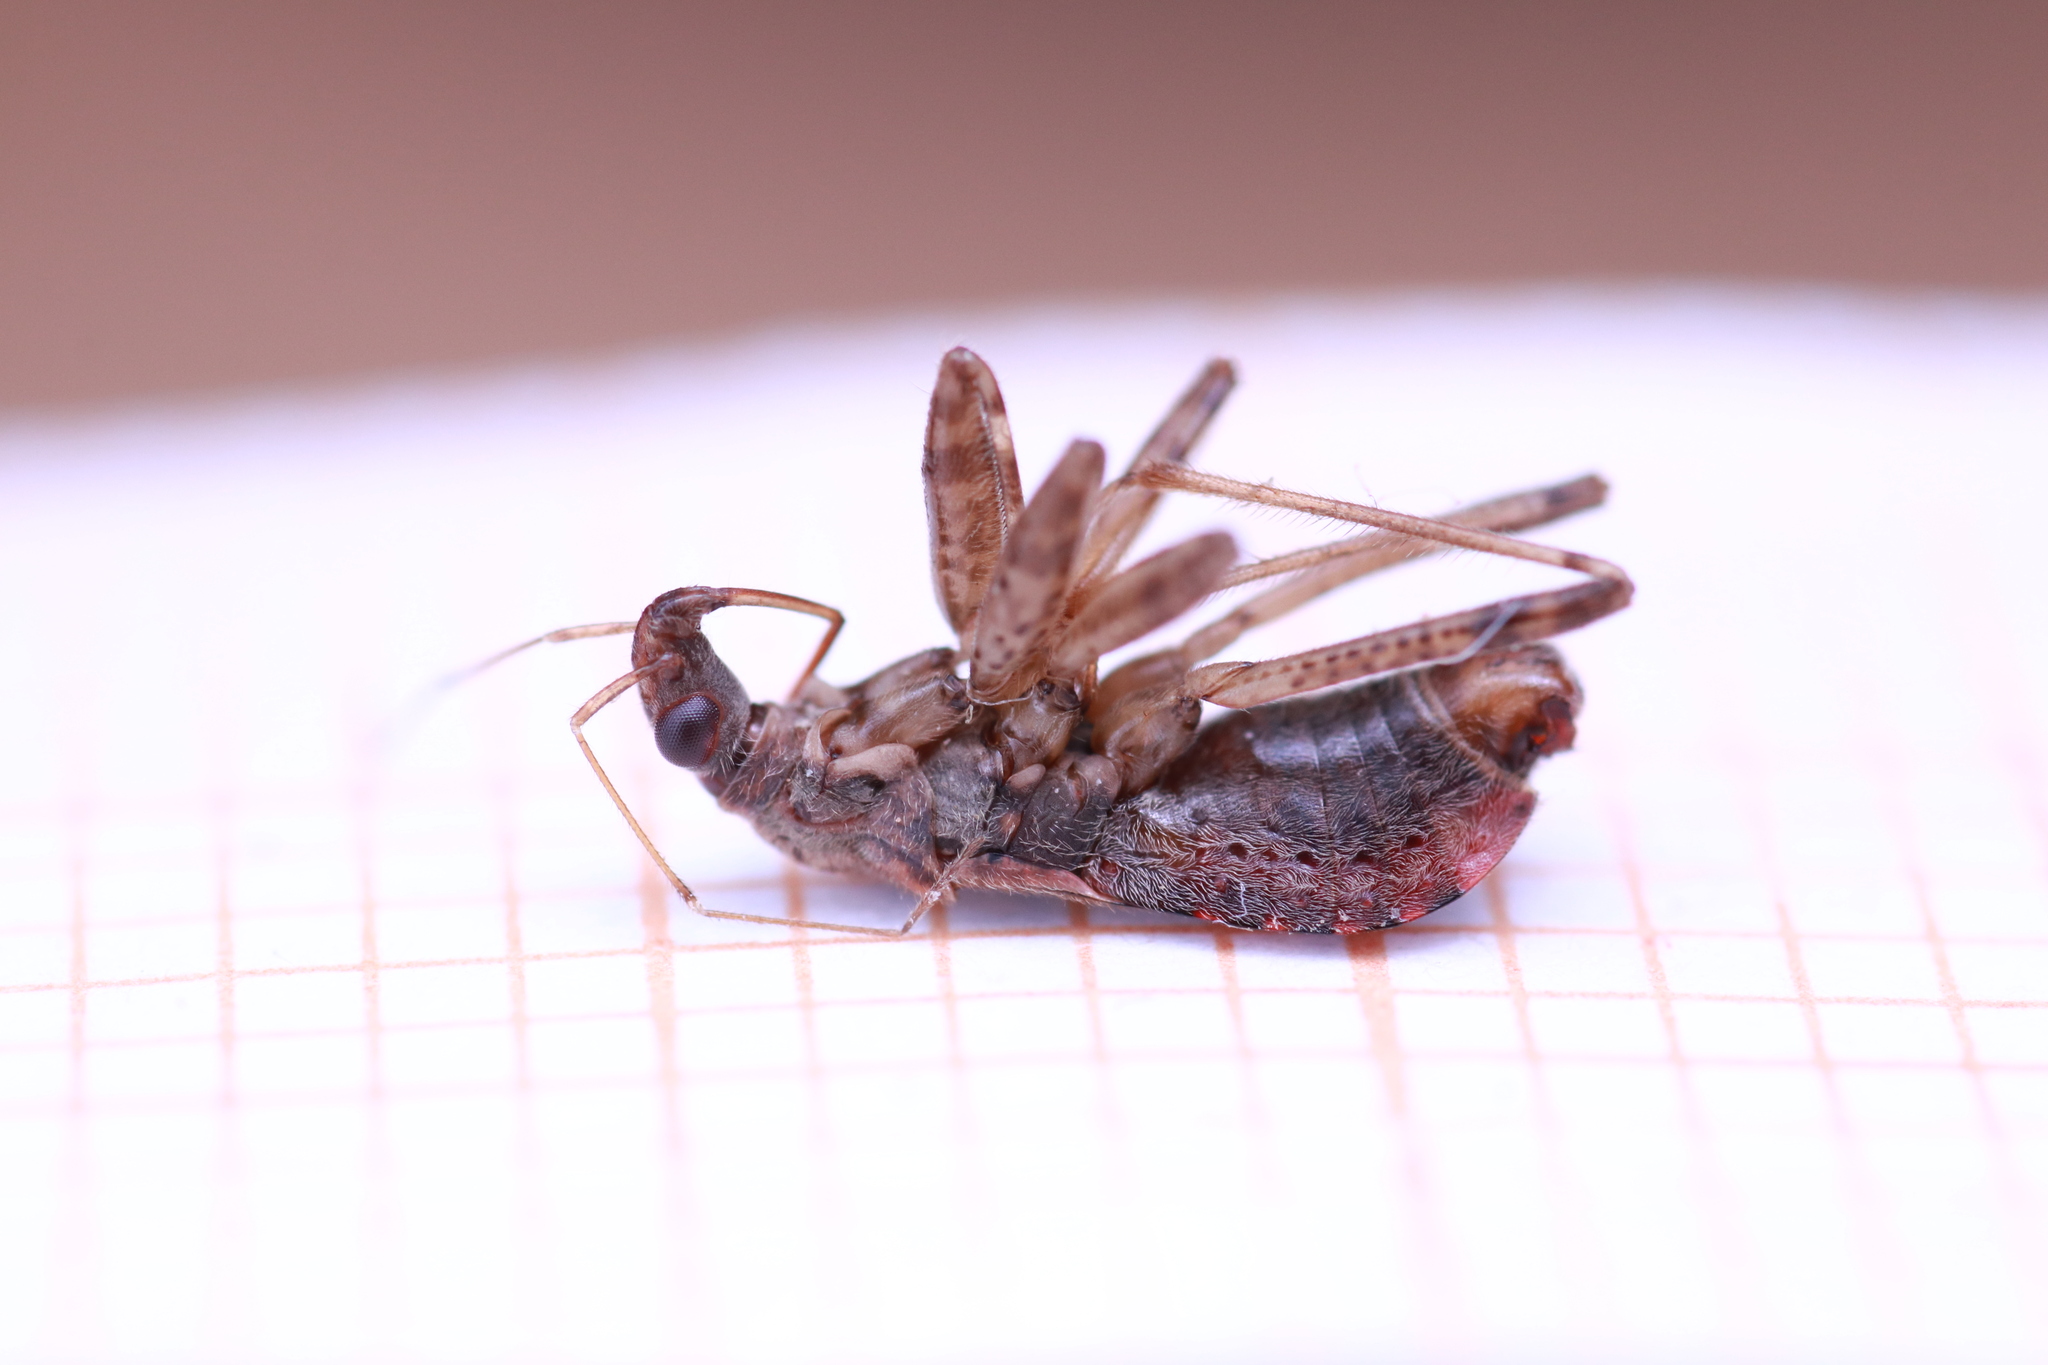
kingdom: Animalia
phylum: Arthropoda
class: Insecta
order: Hemiptera
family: Nabidae
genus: Himacerus
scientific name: Himacerus mirmicoides
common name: Ant damsel bug
